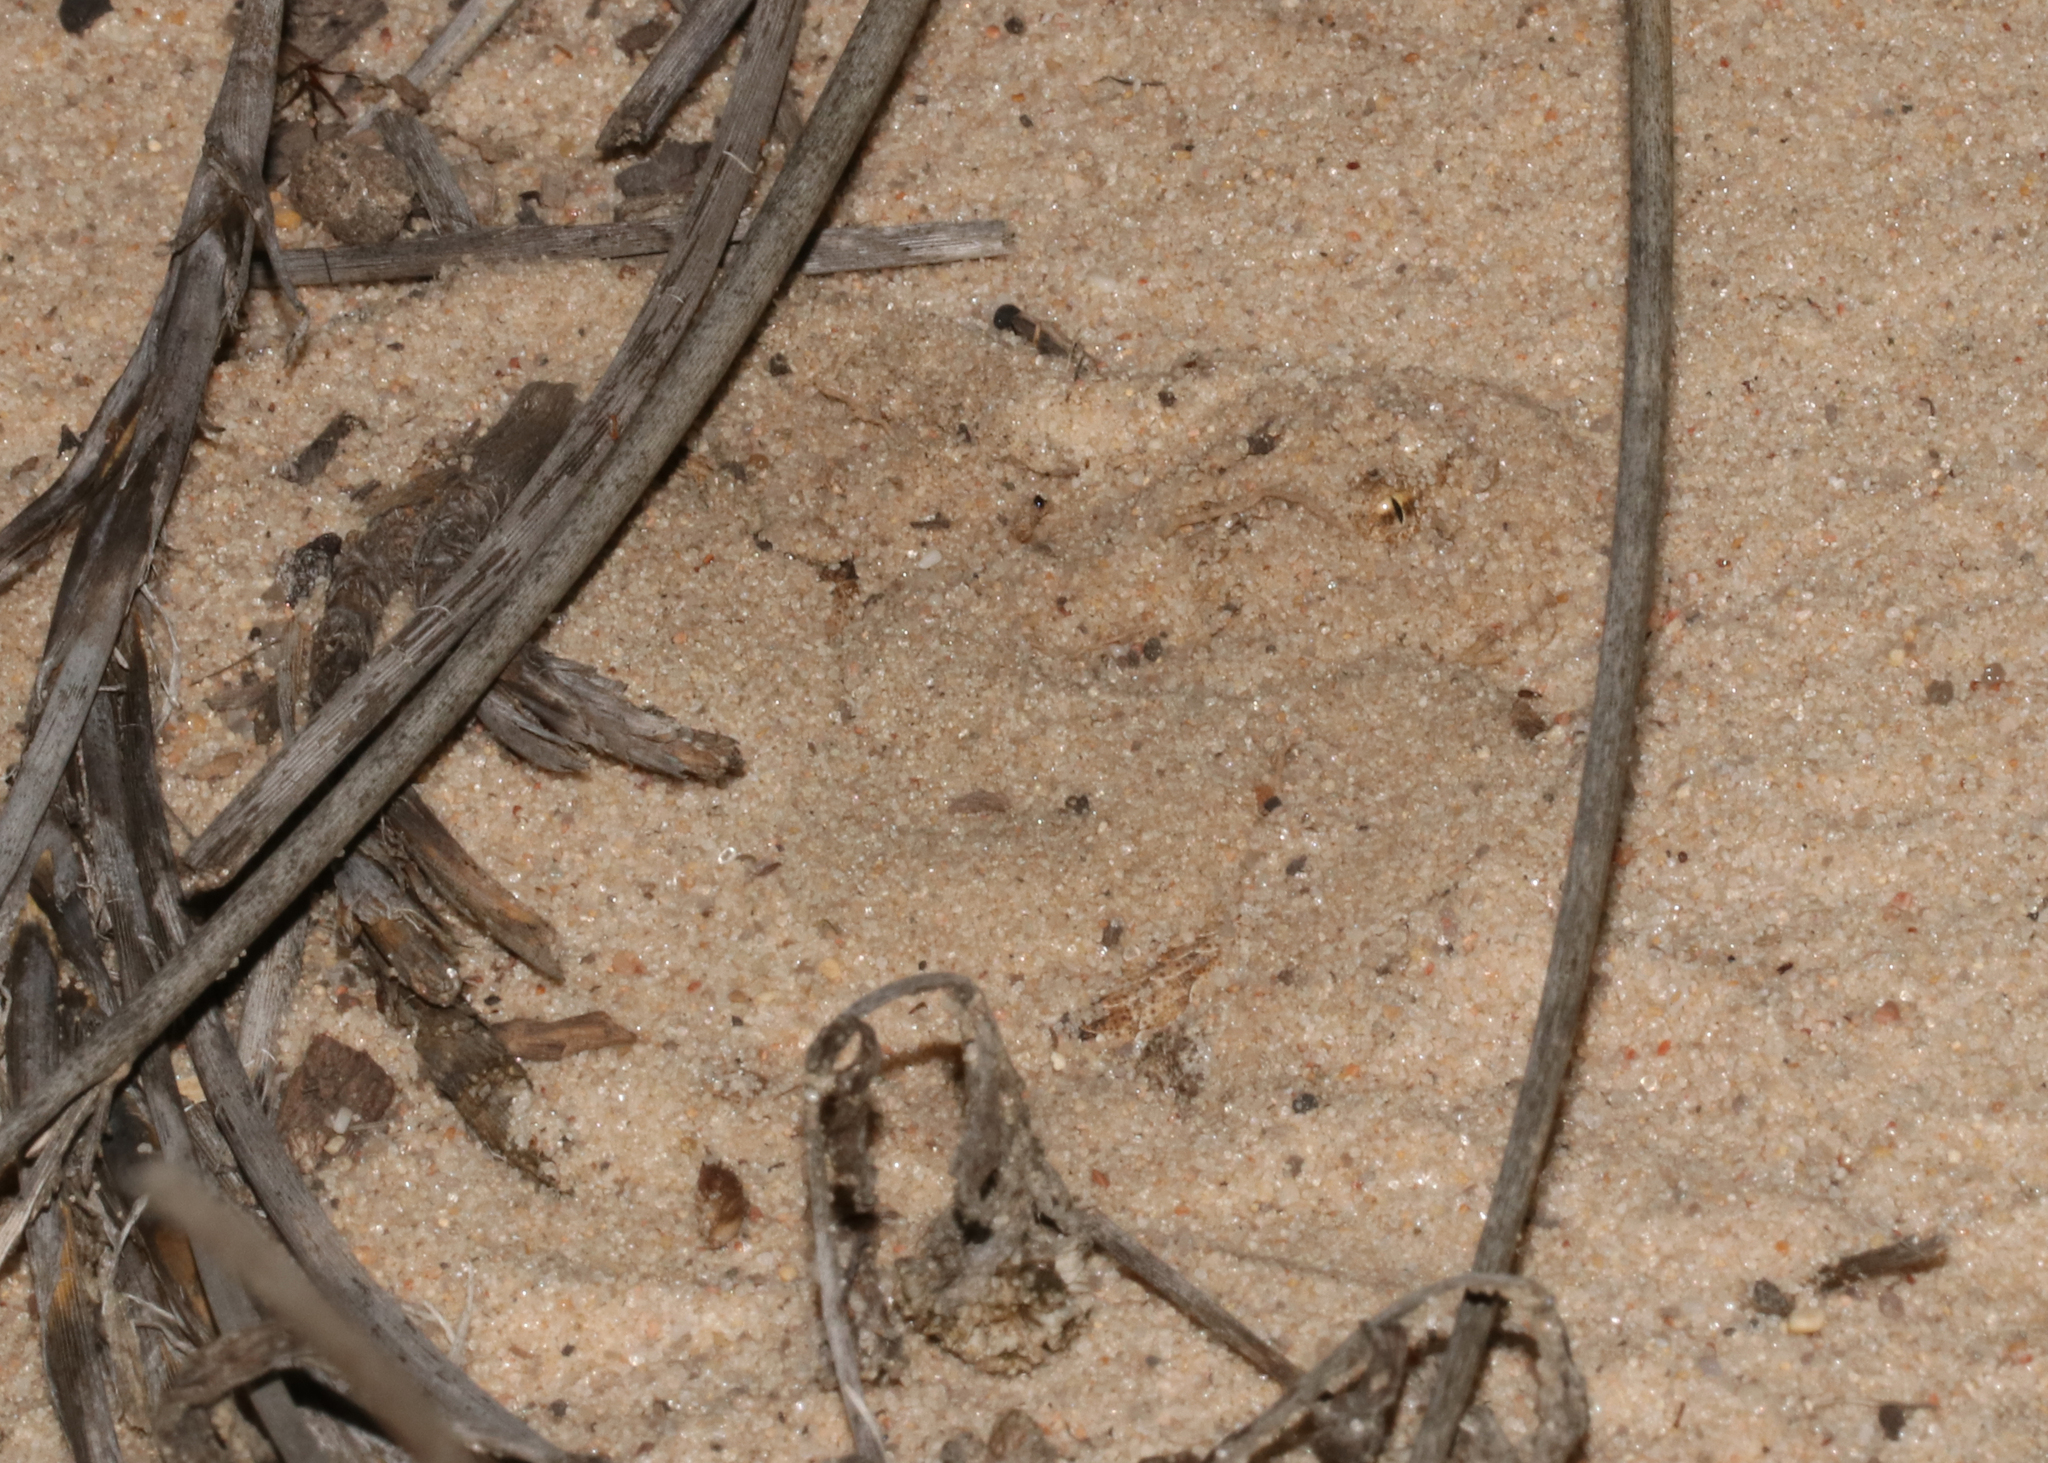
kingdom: Animalia
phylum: Chordata
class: Squamata
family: Viperidae
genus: Bitis
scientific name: Bitis schneideri
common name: Namaqua dwarf adder
